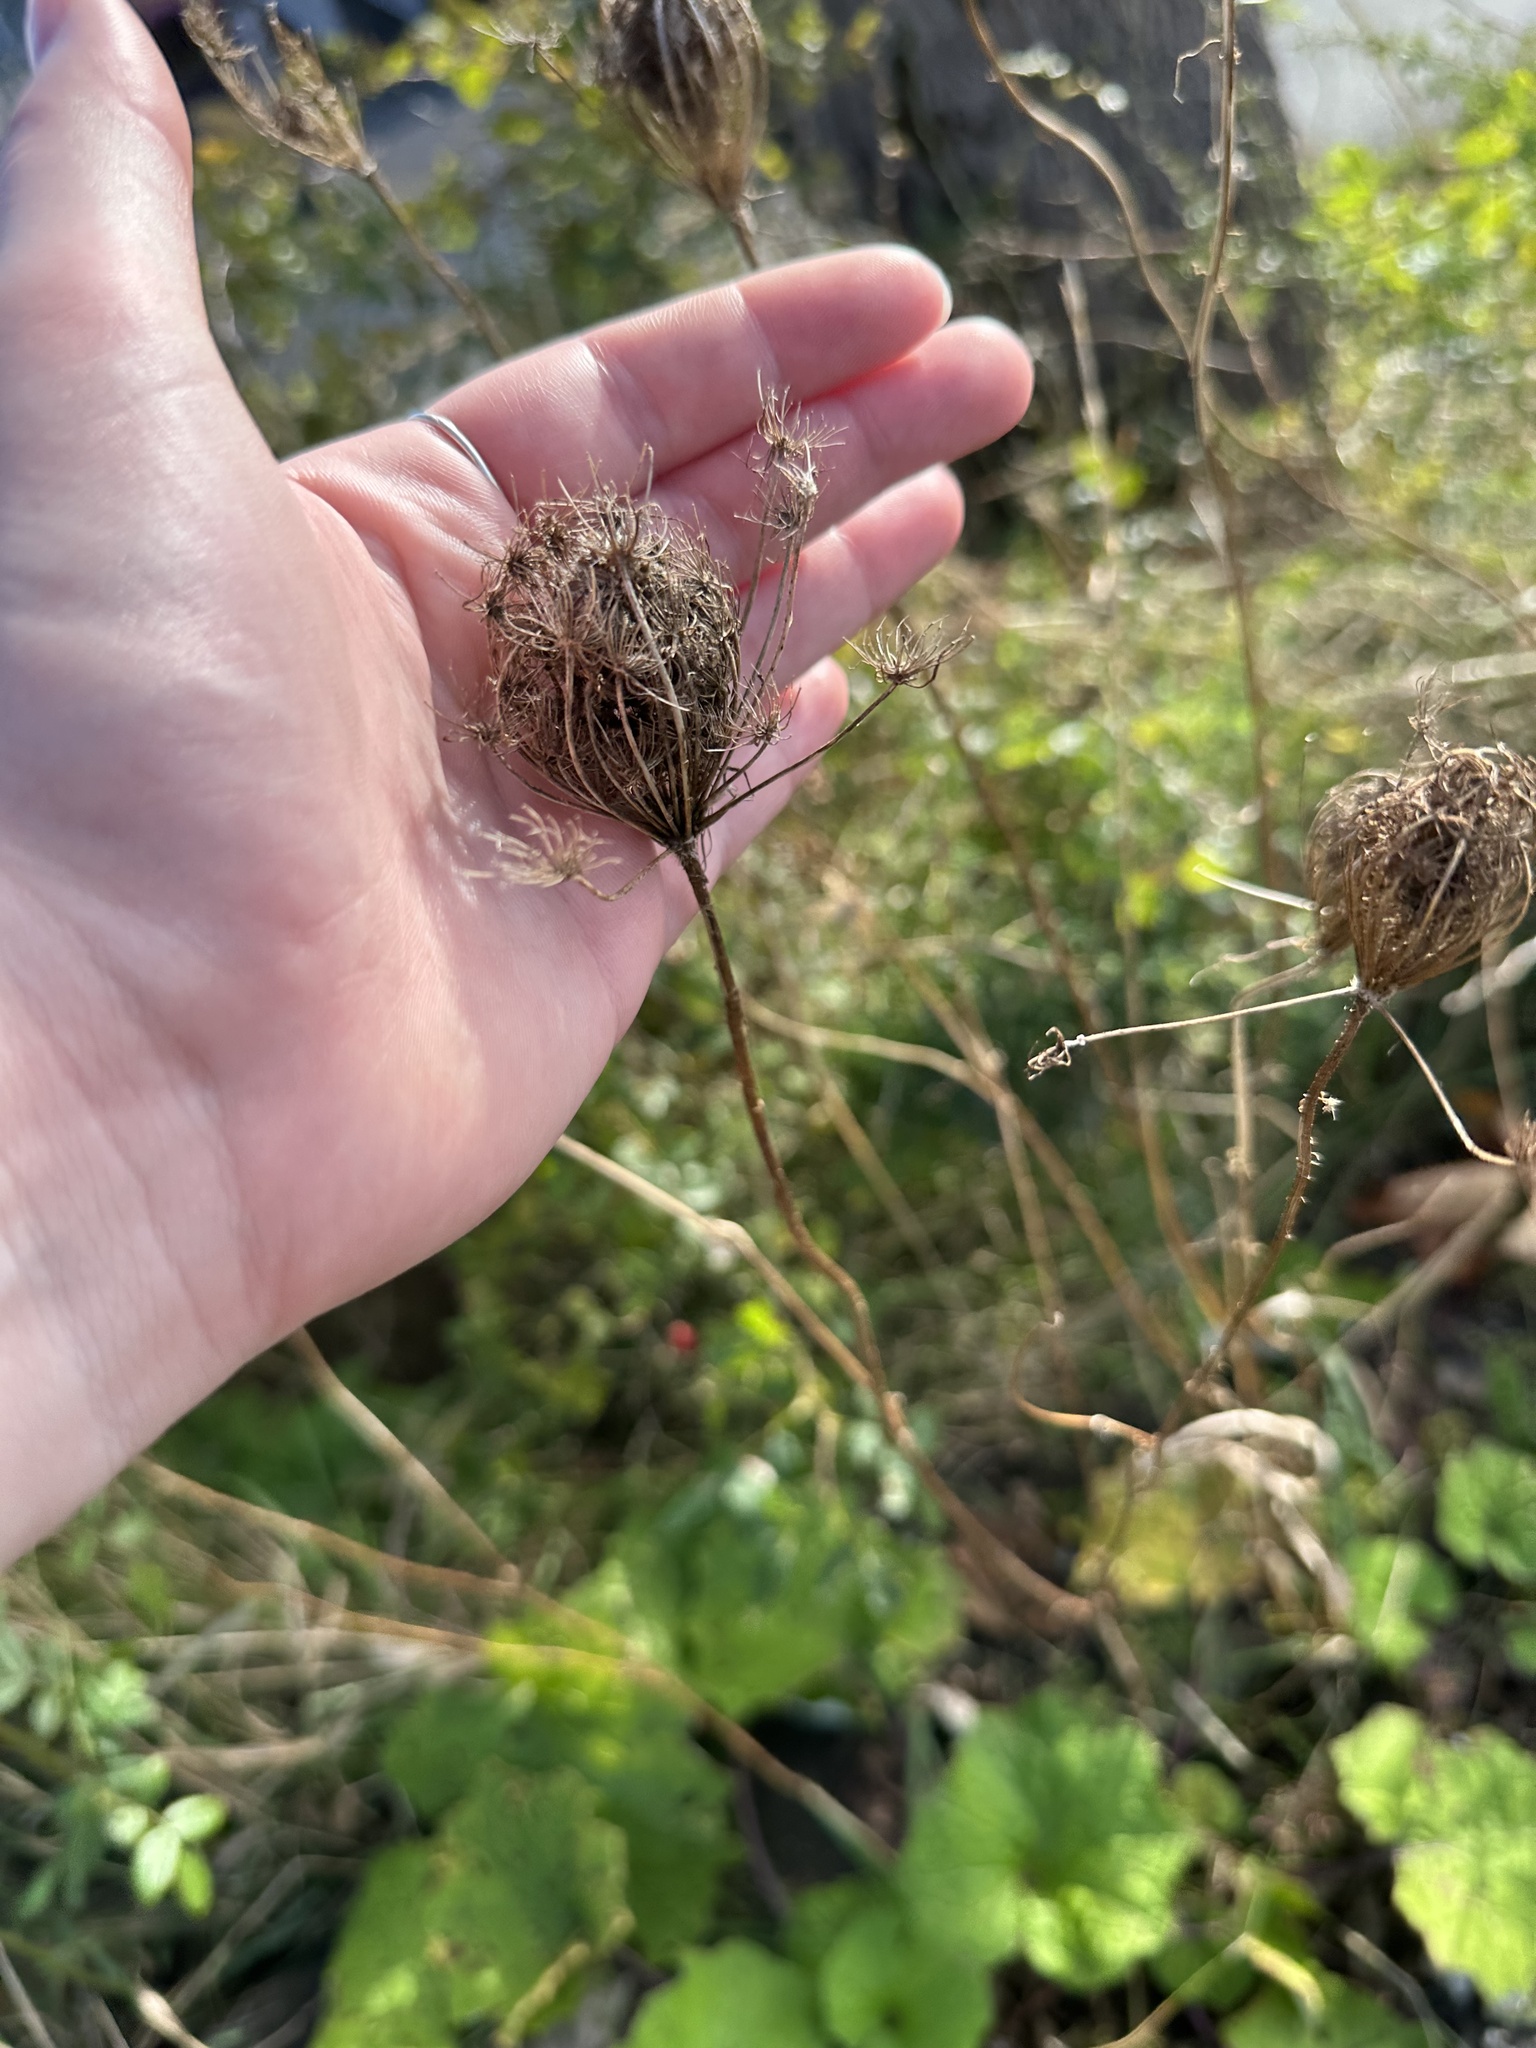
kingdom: Plantae
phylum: Tracheophyta
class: Magnoliopsida
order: Apiales
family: Apiaceae
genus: Daucus
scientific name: Daucus carota
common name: Wild carrot
